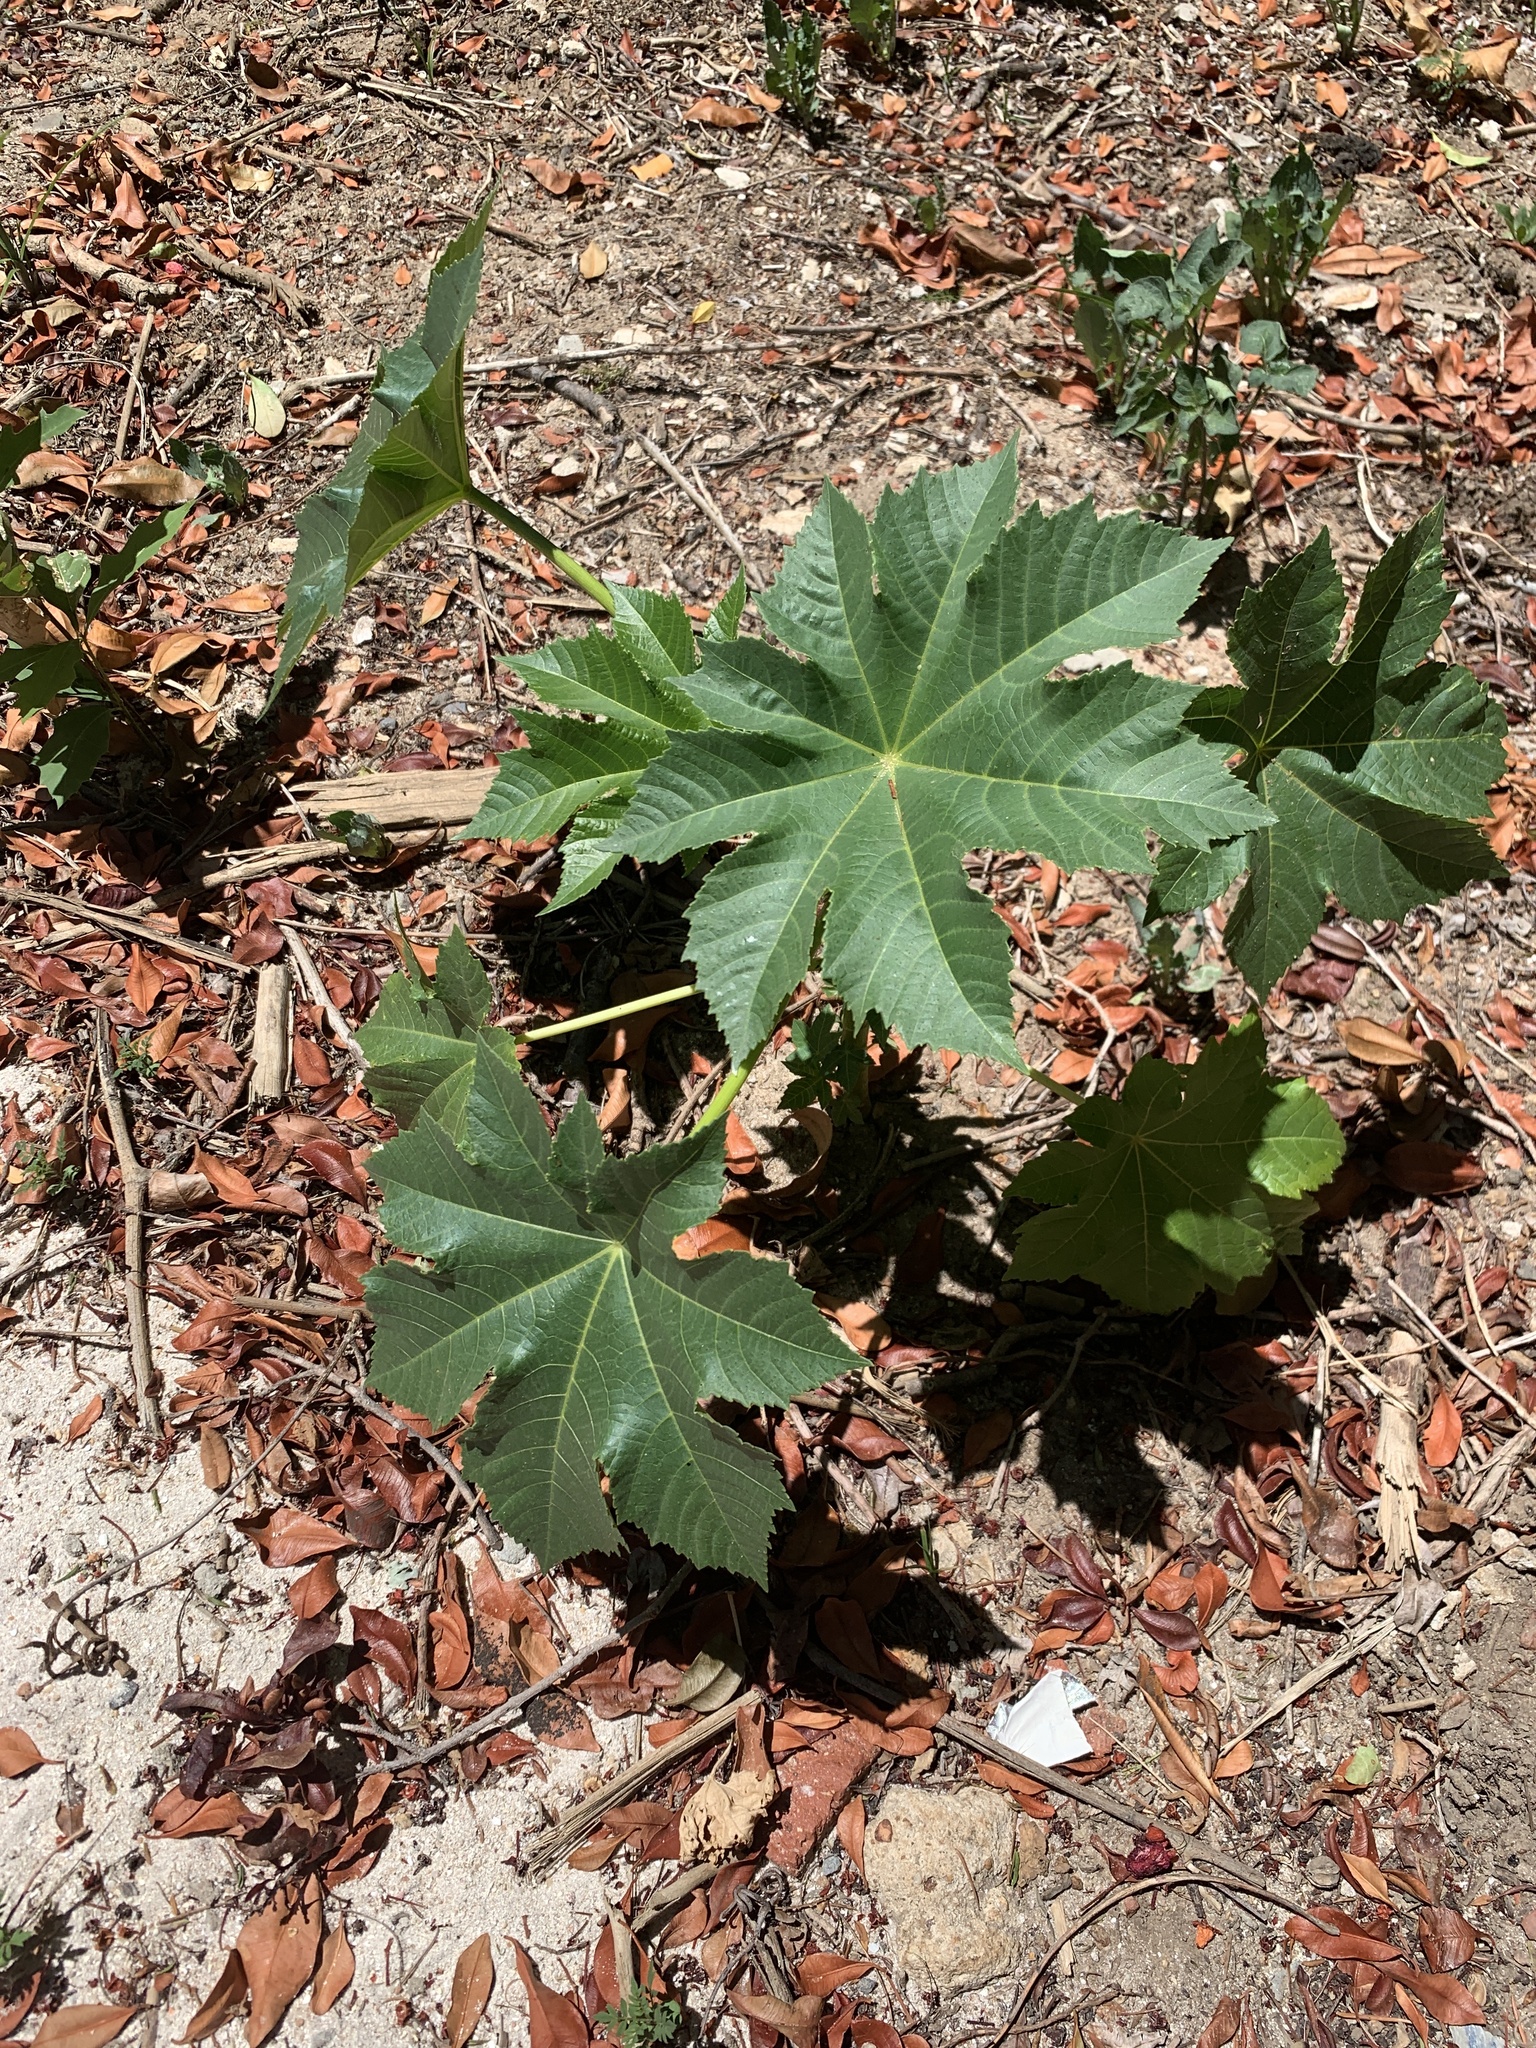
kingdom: Plantae
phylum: Tracheophyta
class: Magnoliopsida
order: Malpighiales
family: Euphorbiaceae
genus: Ricinus
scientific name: Ricinus communis
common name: Castor-oil-plant
